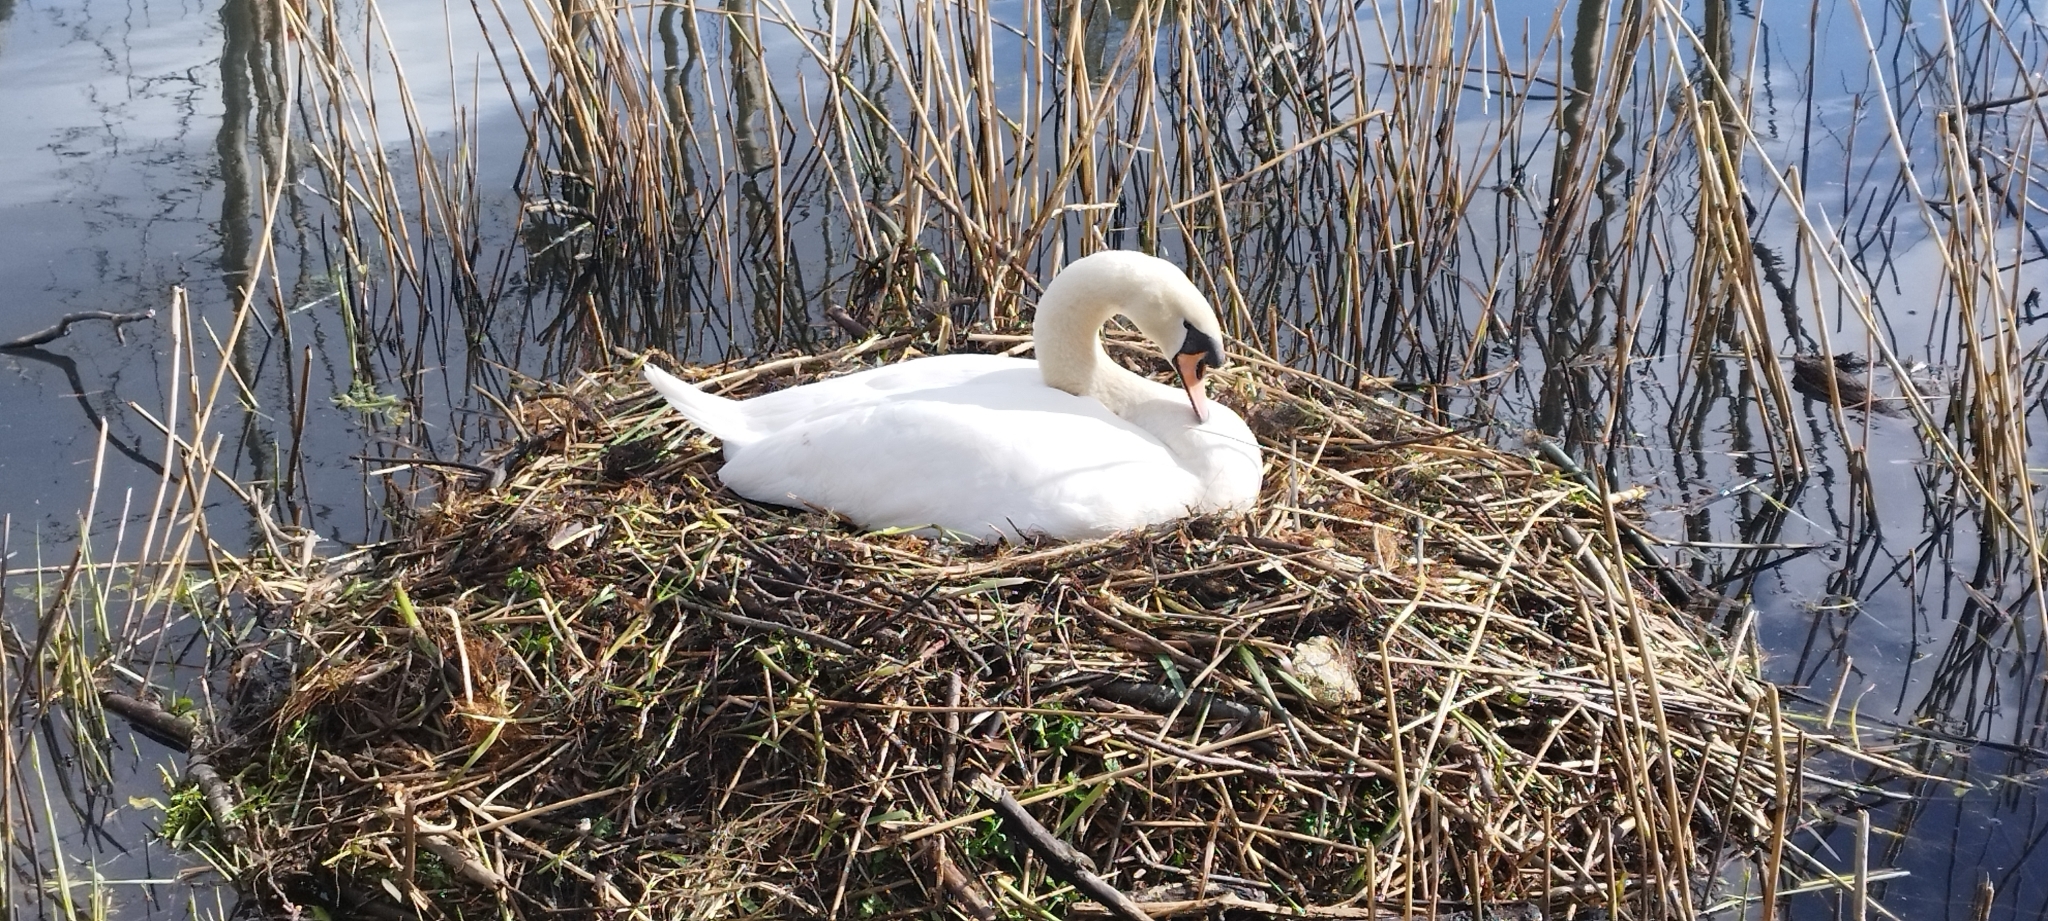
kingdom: Animalia
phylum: Chordata
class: Aves
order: Anseriformes
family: Anatidae
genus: Cygnus
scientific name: Cygnus olor
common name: Mute swan
